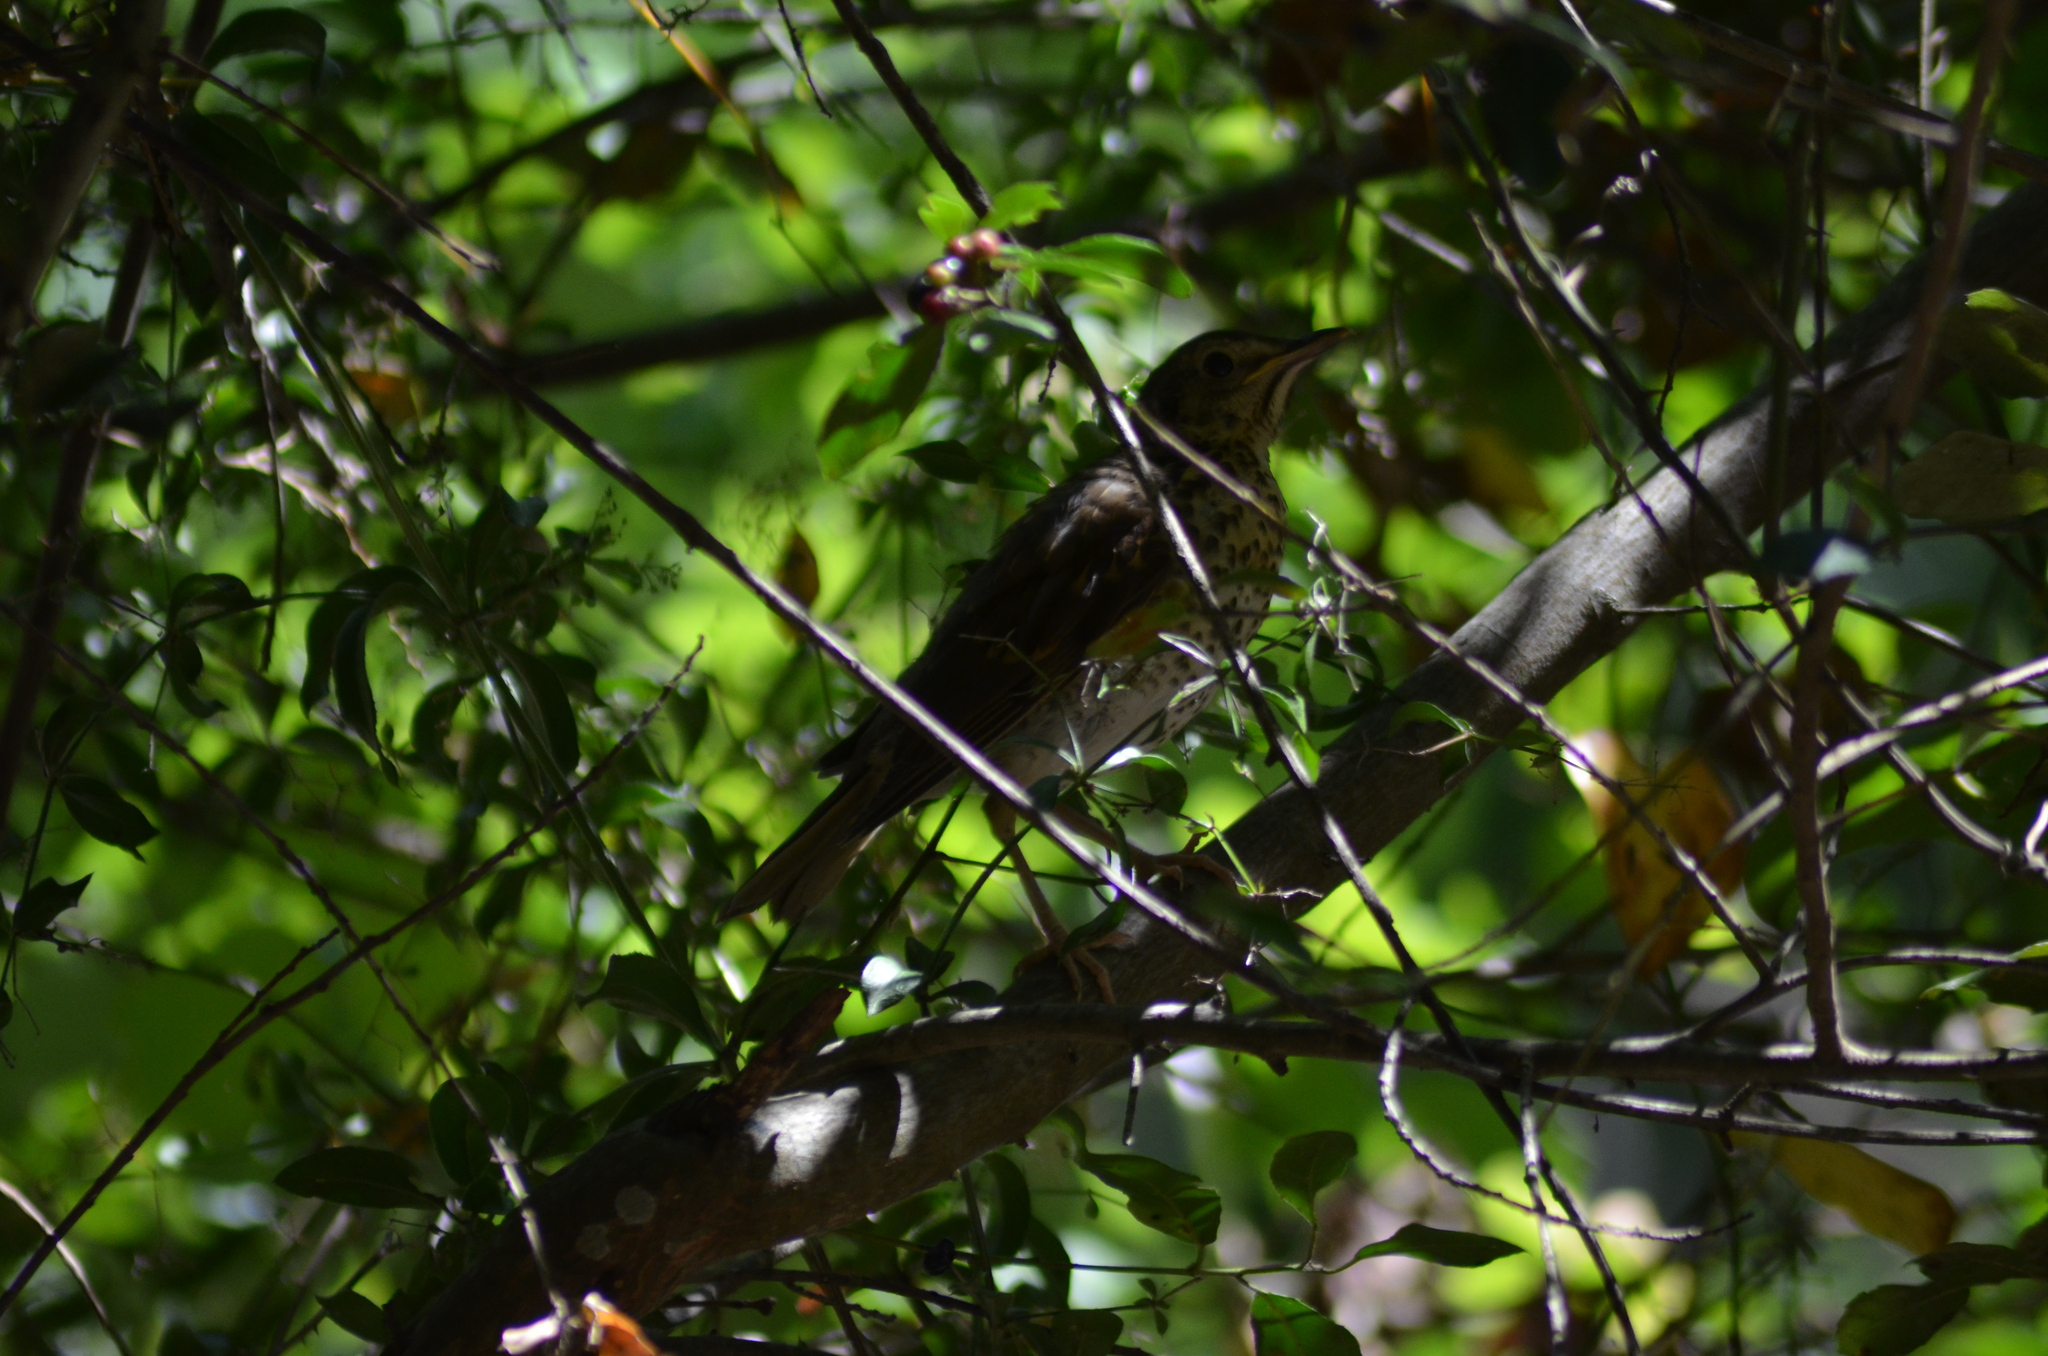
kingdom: Animalia
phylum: Chordata
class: Aves
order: Passeriformes
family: Turdidae
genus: Turdus
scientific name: Turdus philomelos
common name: Song thrush
